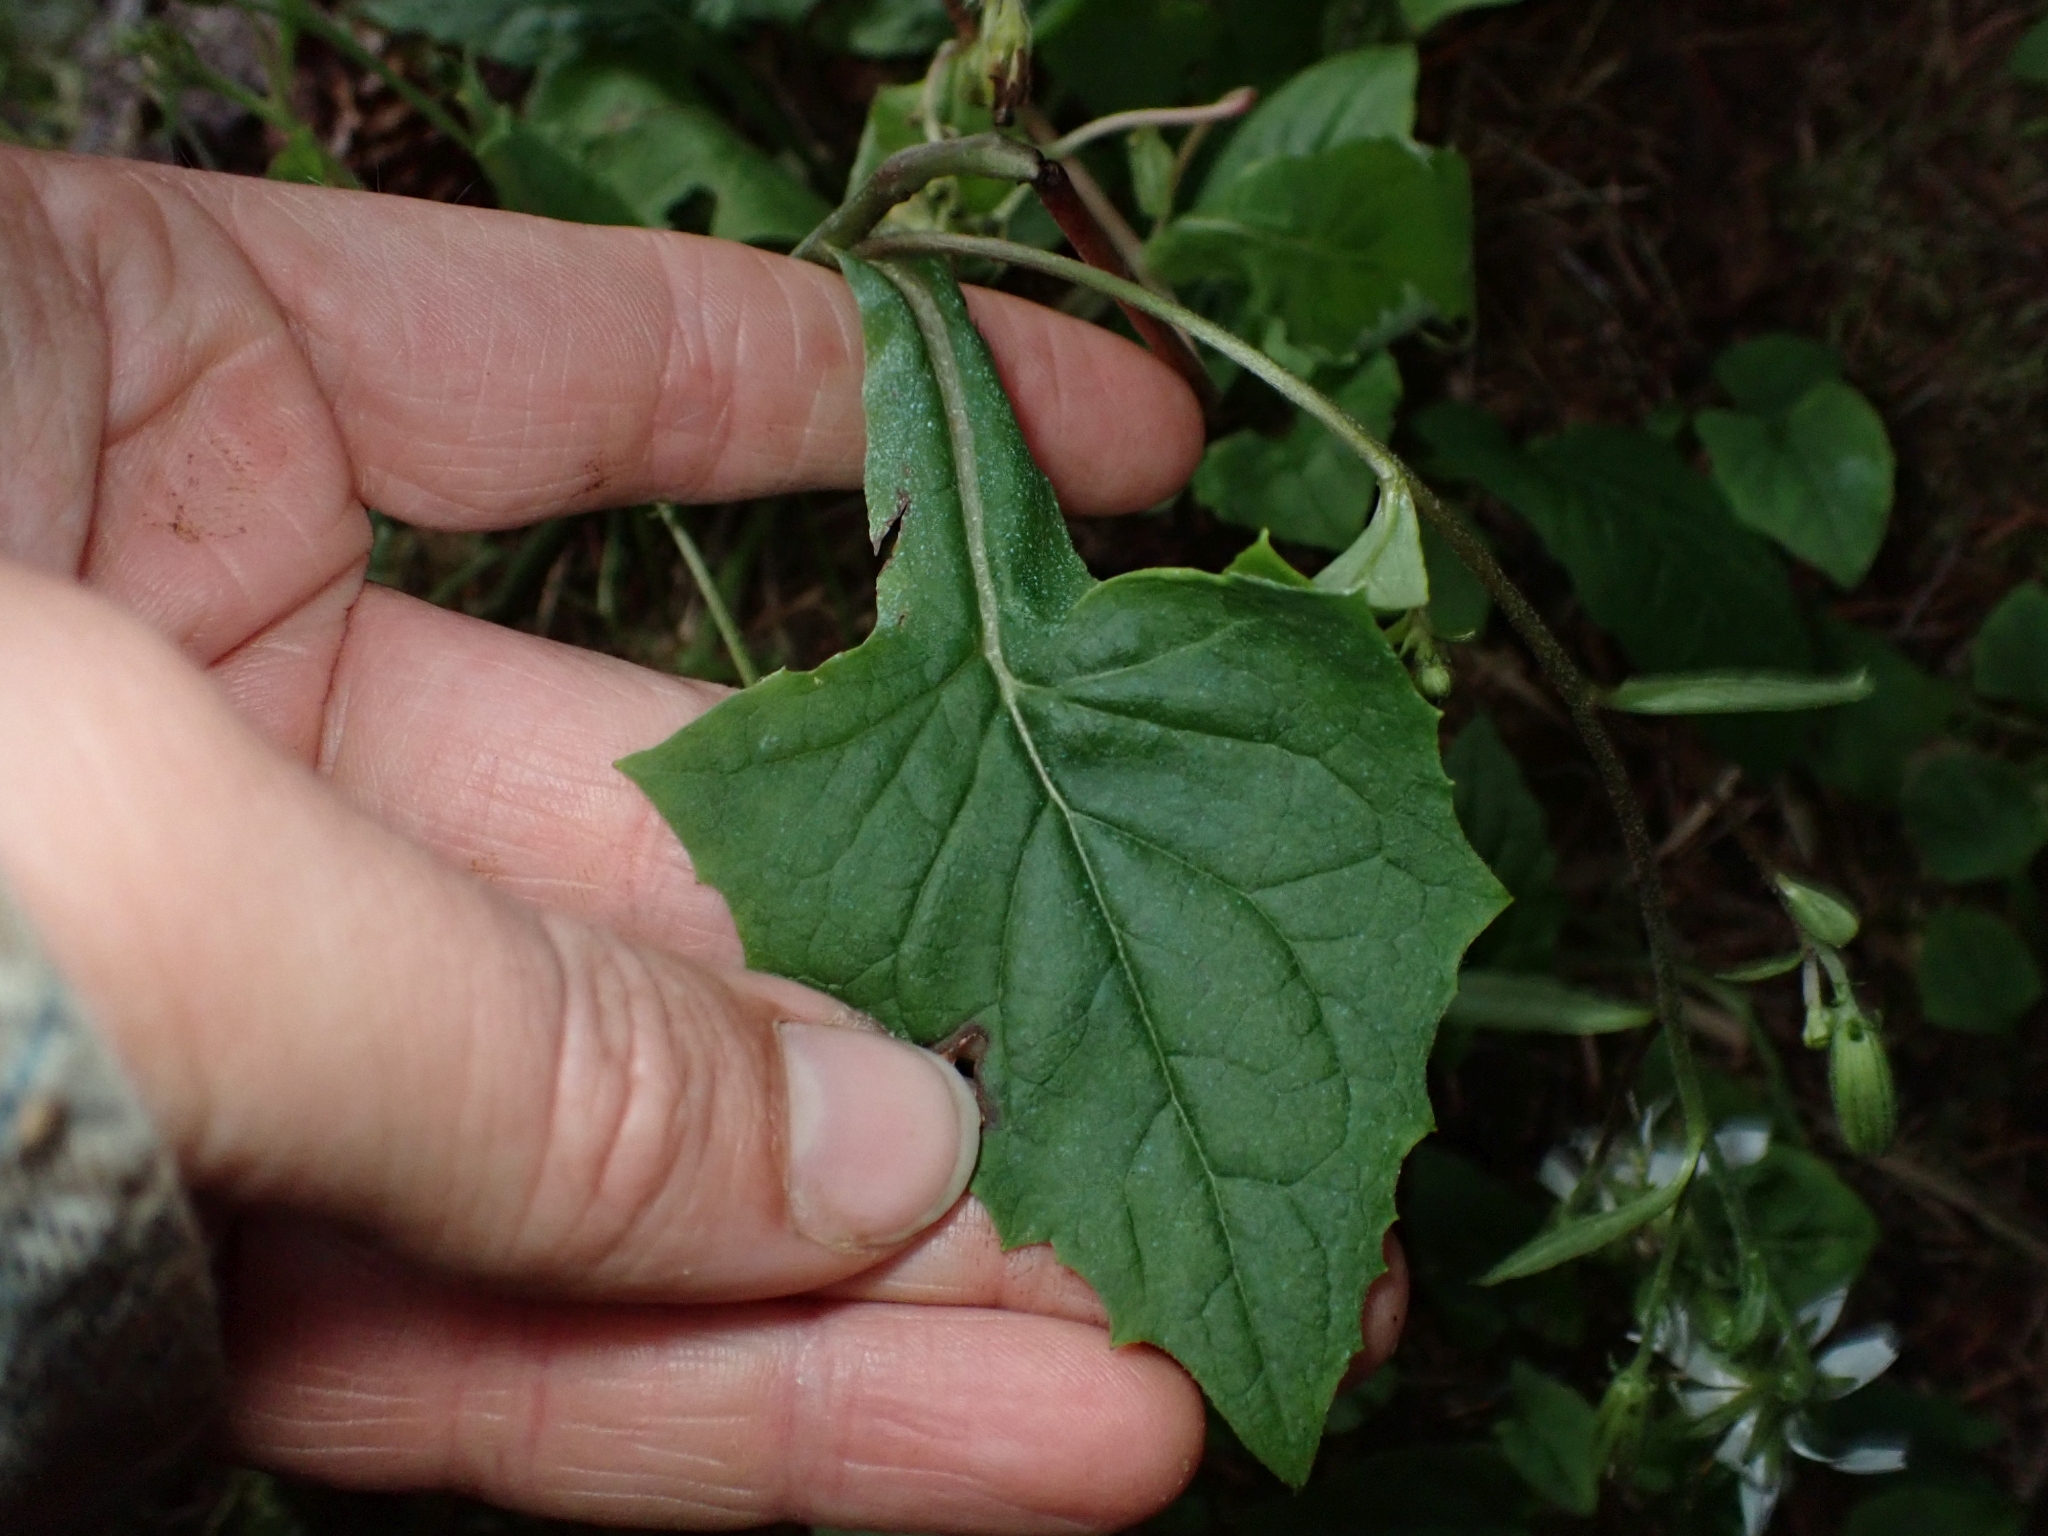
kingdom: Plantae
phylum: Tracheophyta
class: Magnoliopsida
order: Asterales
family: Asteraceae
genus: Nabalus
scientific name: Nabalus hastatus
